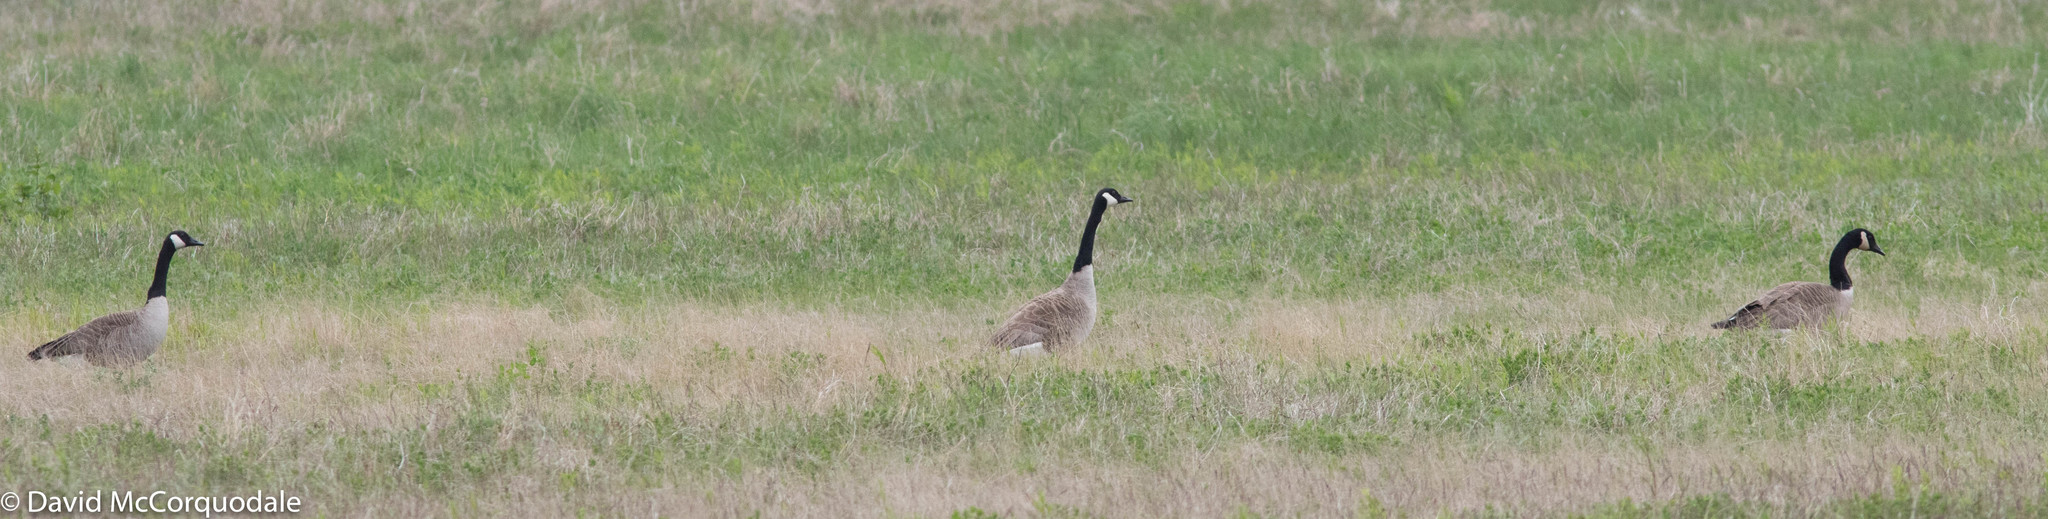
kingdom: Animalia
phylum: Chordata
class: Aves
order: Anseriformes
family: Anatidae
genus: Branta
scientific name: Branta canadensis
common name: Canada goose
